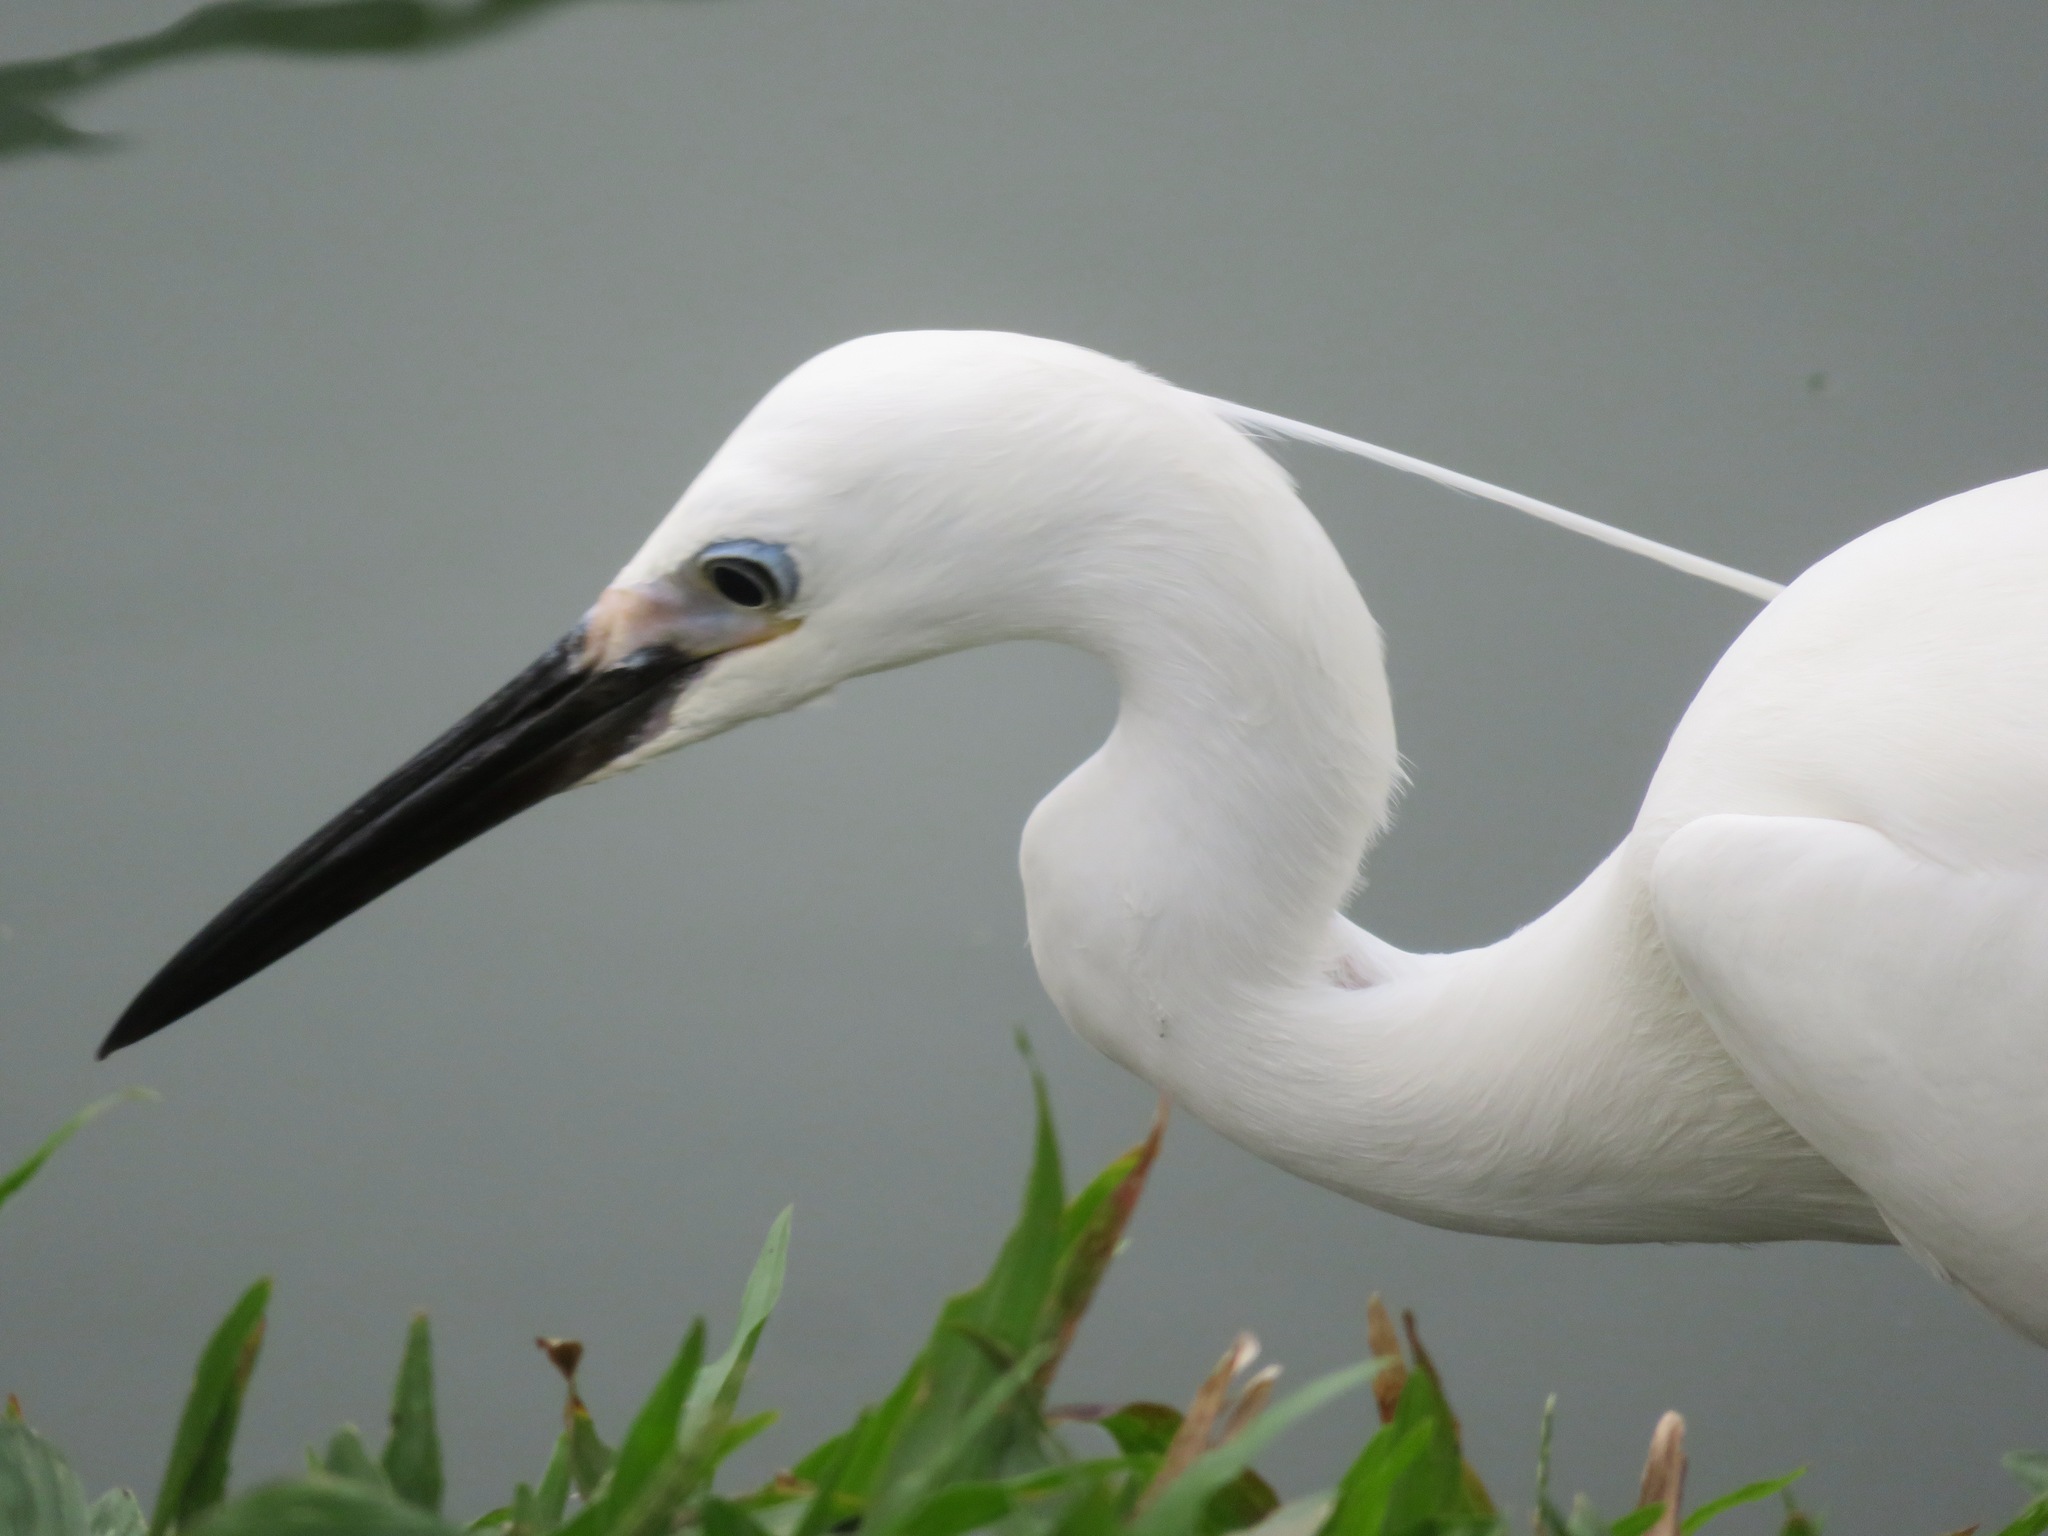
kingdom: Animalia
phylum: Chordata
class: Aves
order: Pelecaniformes
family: Ardeidae
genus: Egretta
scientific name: Egretta garzetta
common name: Little egret
